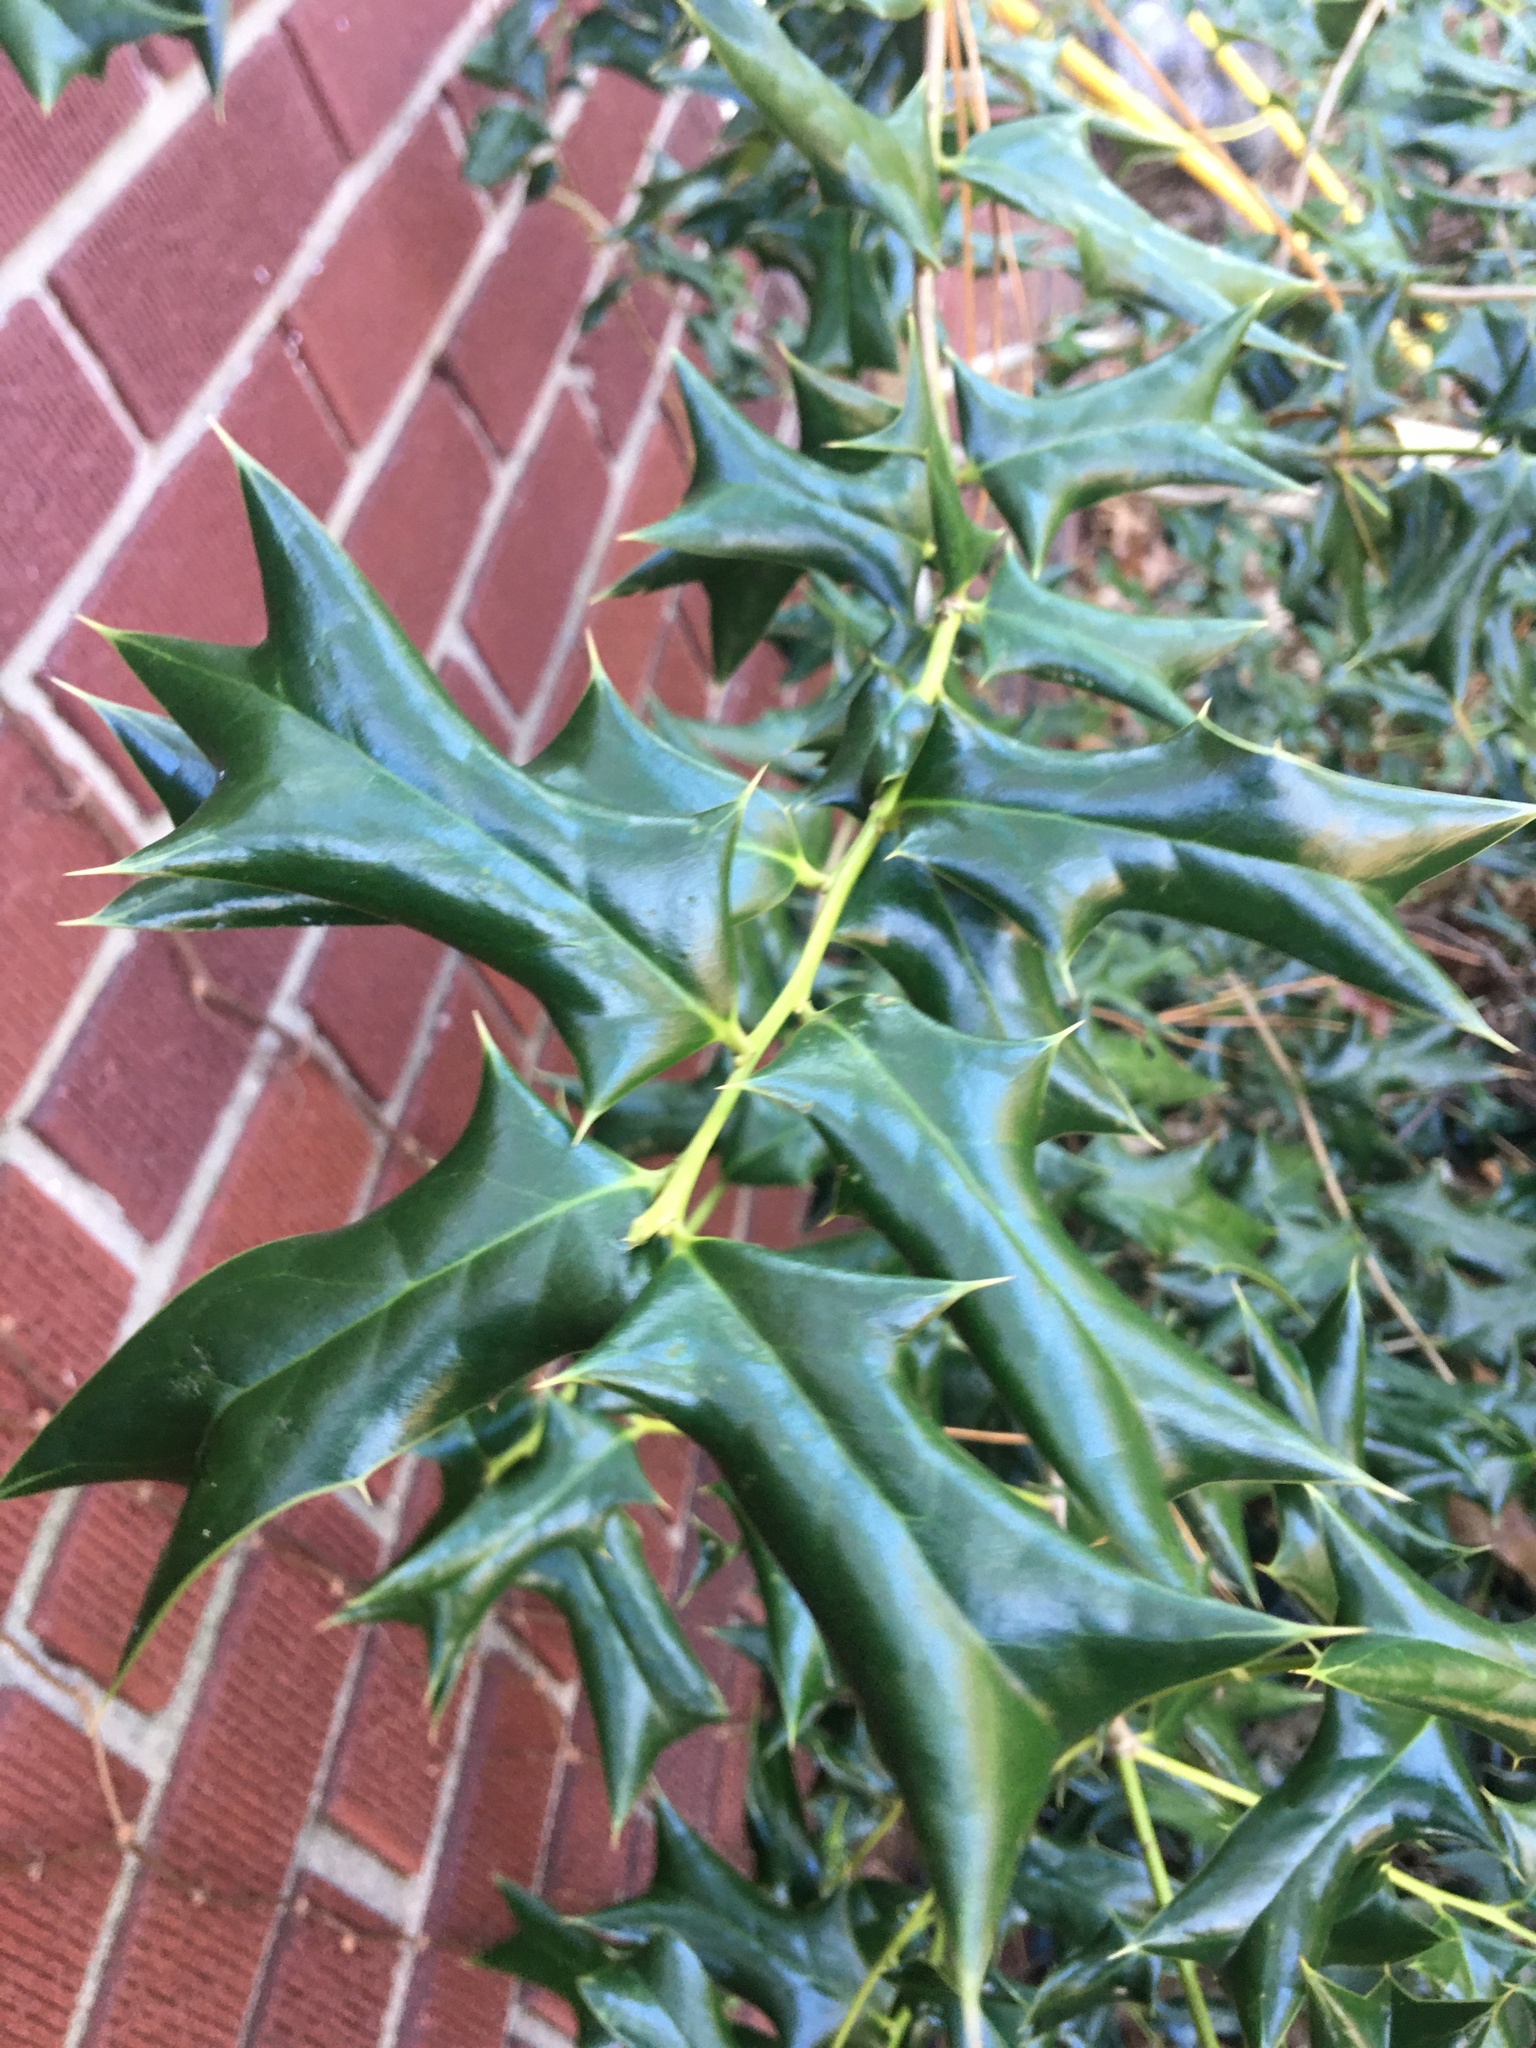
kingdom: Plantae
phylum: Tracheophyta
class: Magnoliopsida
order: Aquifoliales
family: Aquifoliaceae
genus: Ilex
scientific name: Ilex cornuta
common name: Chinese holly
